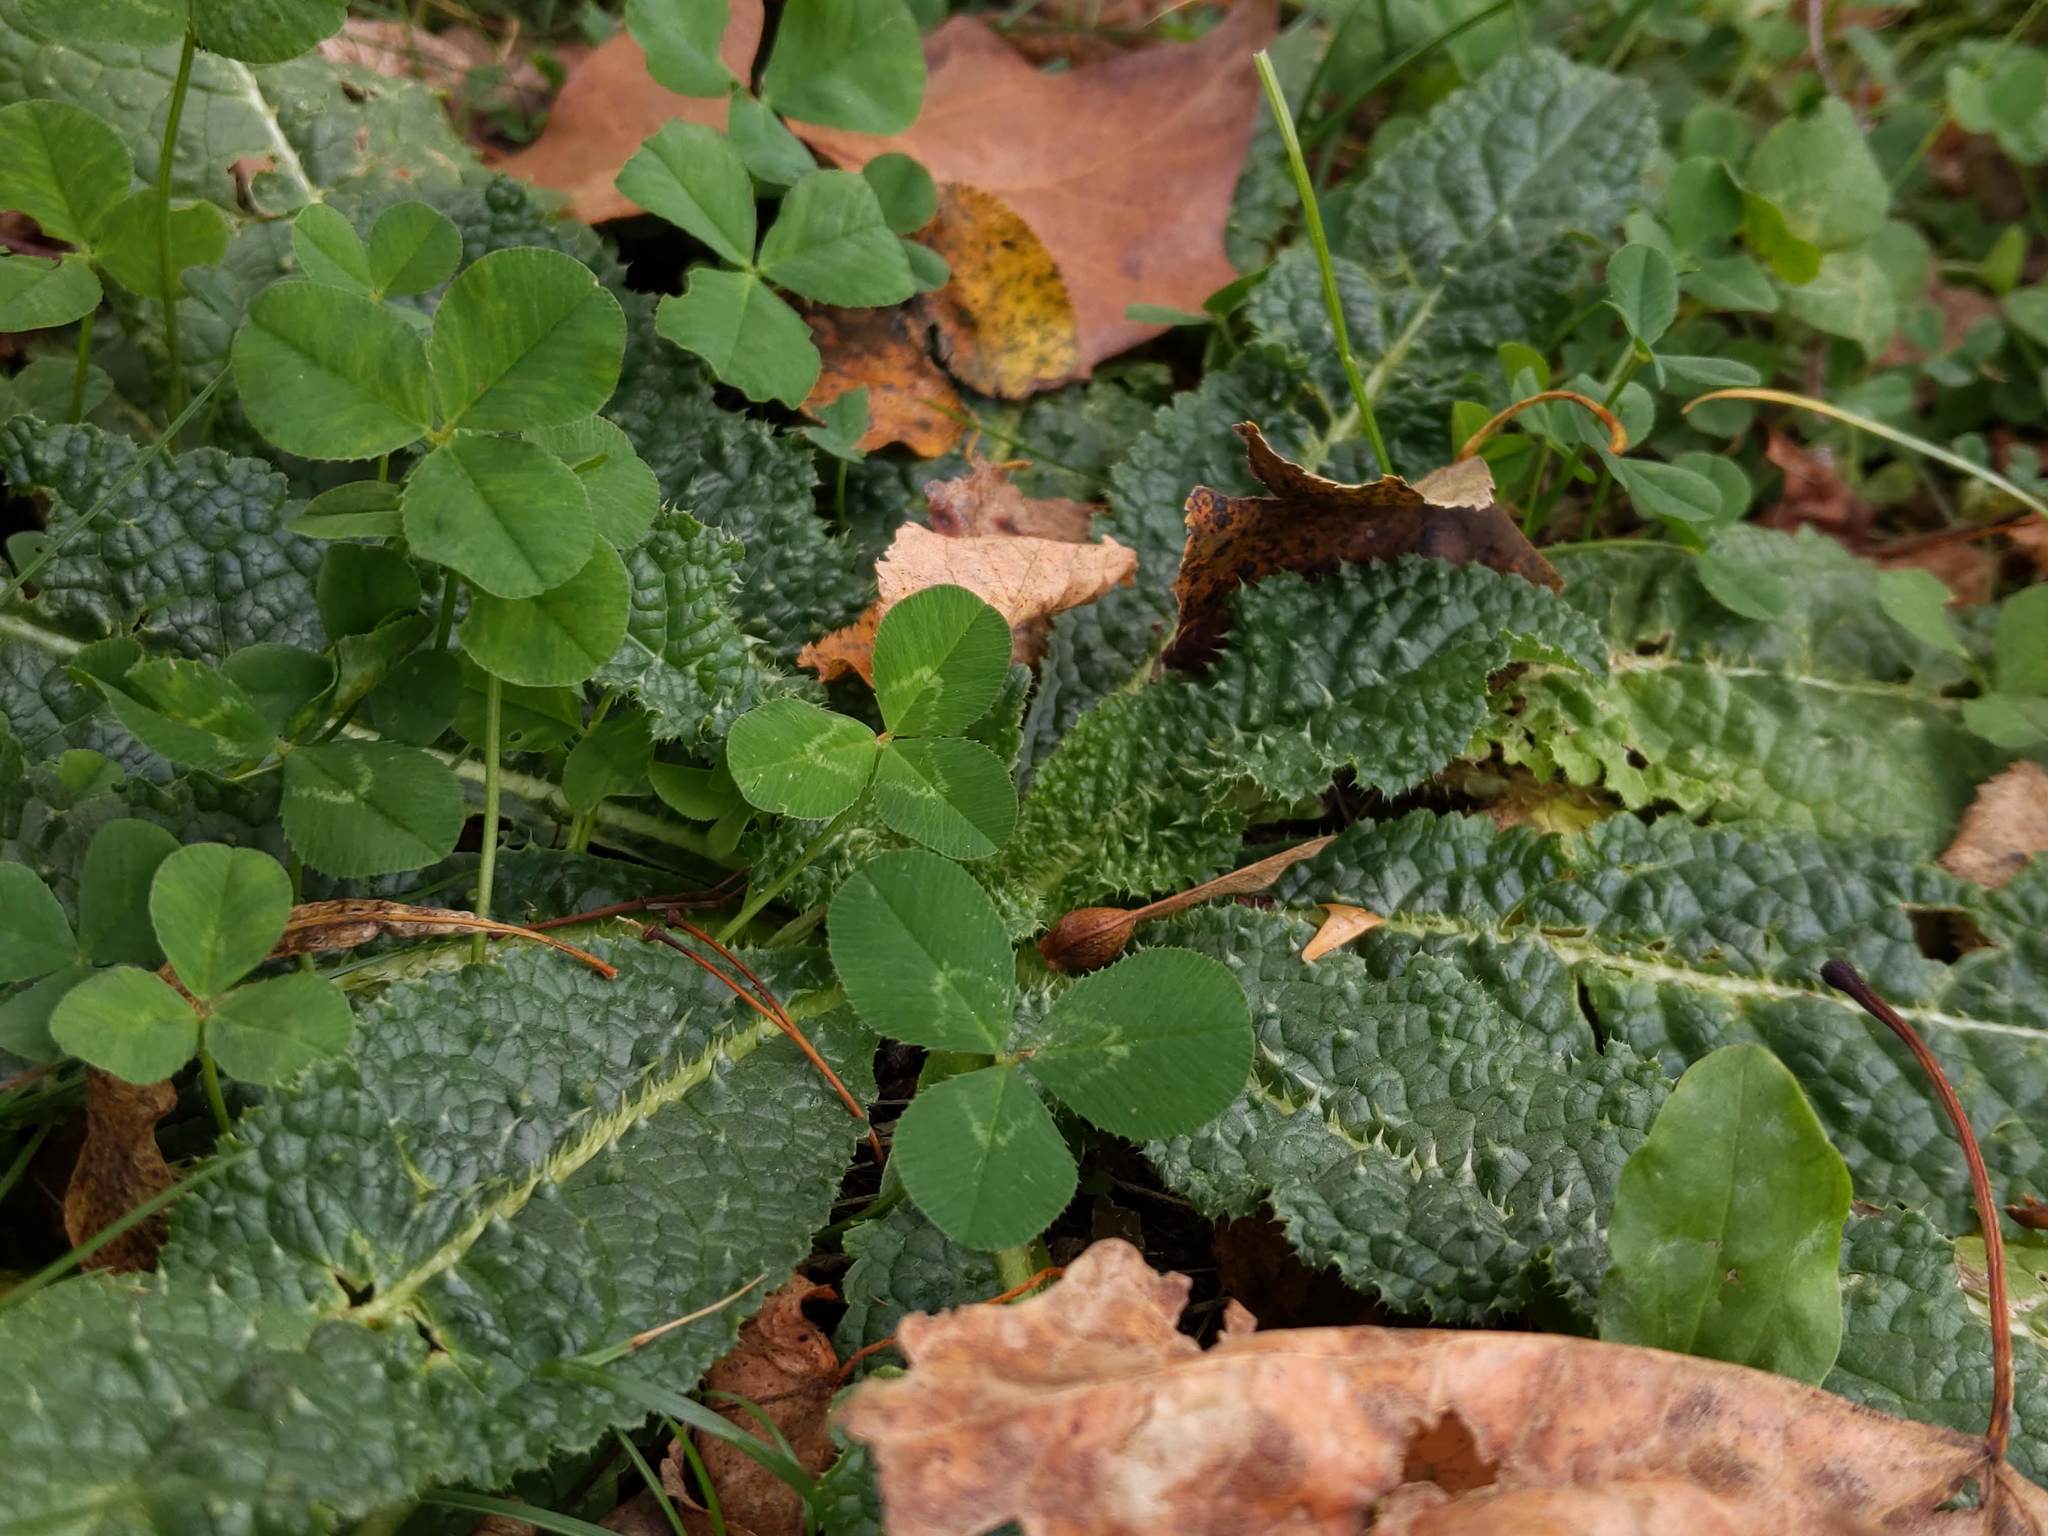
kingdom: Plantae
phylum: Tracheophyta
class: Magnoliopsida
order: Dipsacales
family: Caprifoliaceae
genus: Dipsacus
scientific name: Dipsacus fullonum
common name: Teasel
